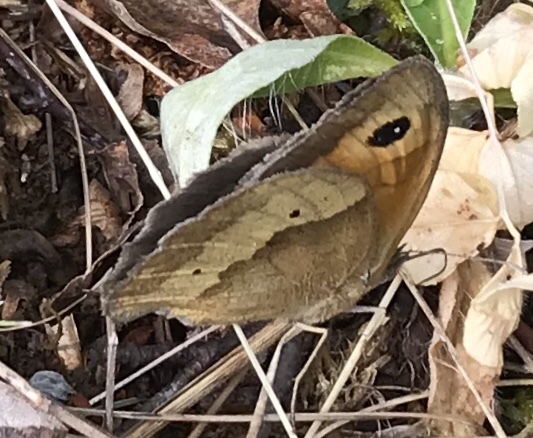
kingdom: Animalia
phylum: Arthropoda
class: Insecta
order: Lepidoptera
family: Nymphalidae
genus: Maniola
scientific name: Maniola jurtina
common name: Meadow brown
